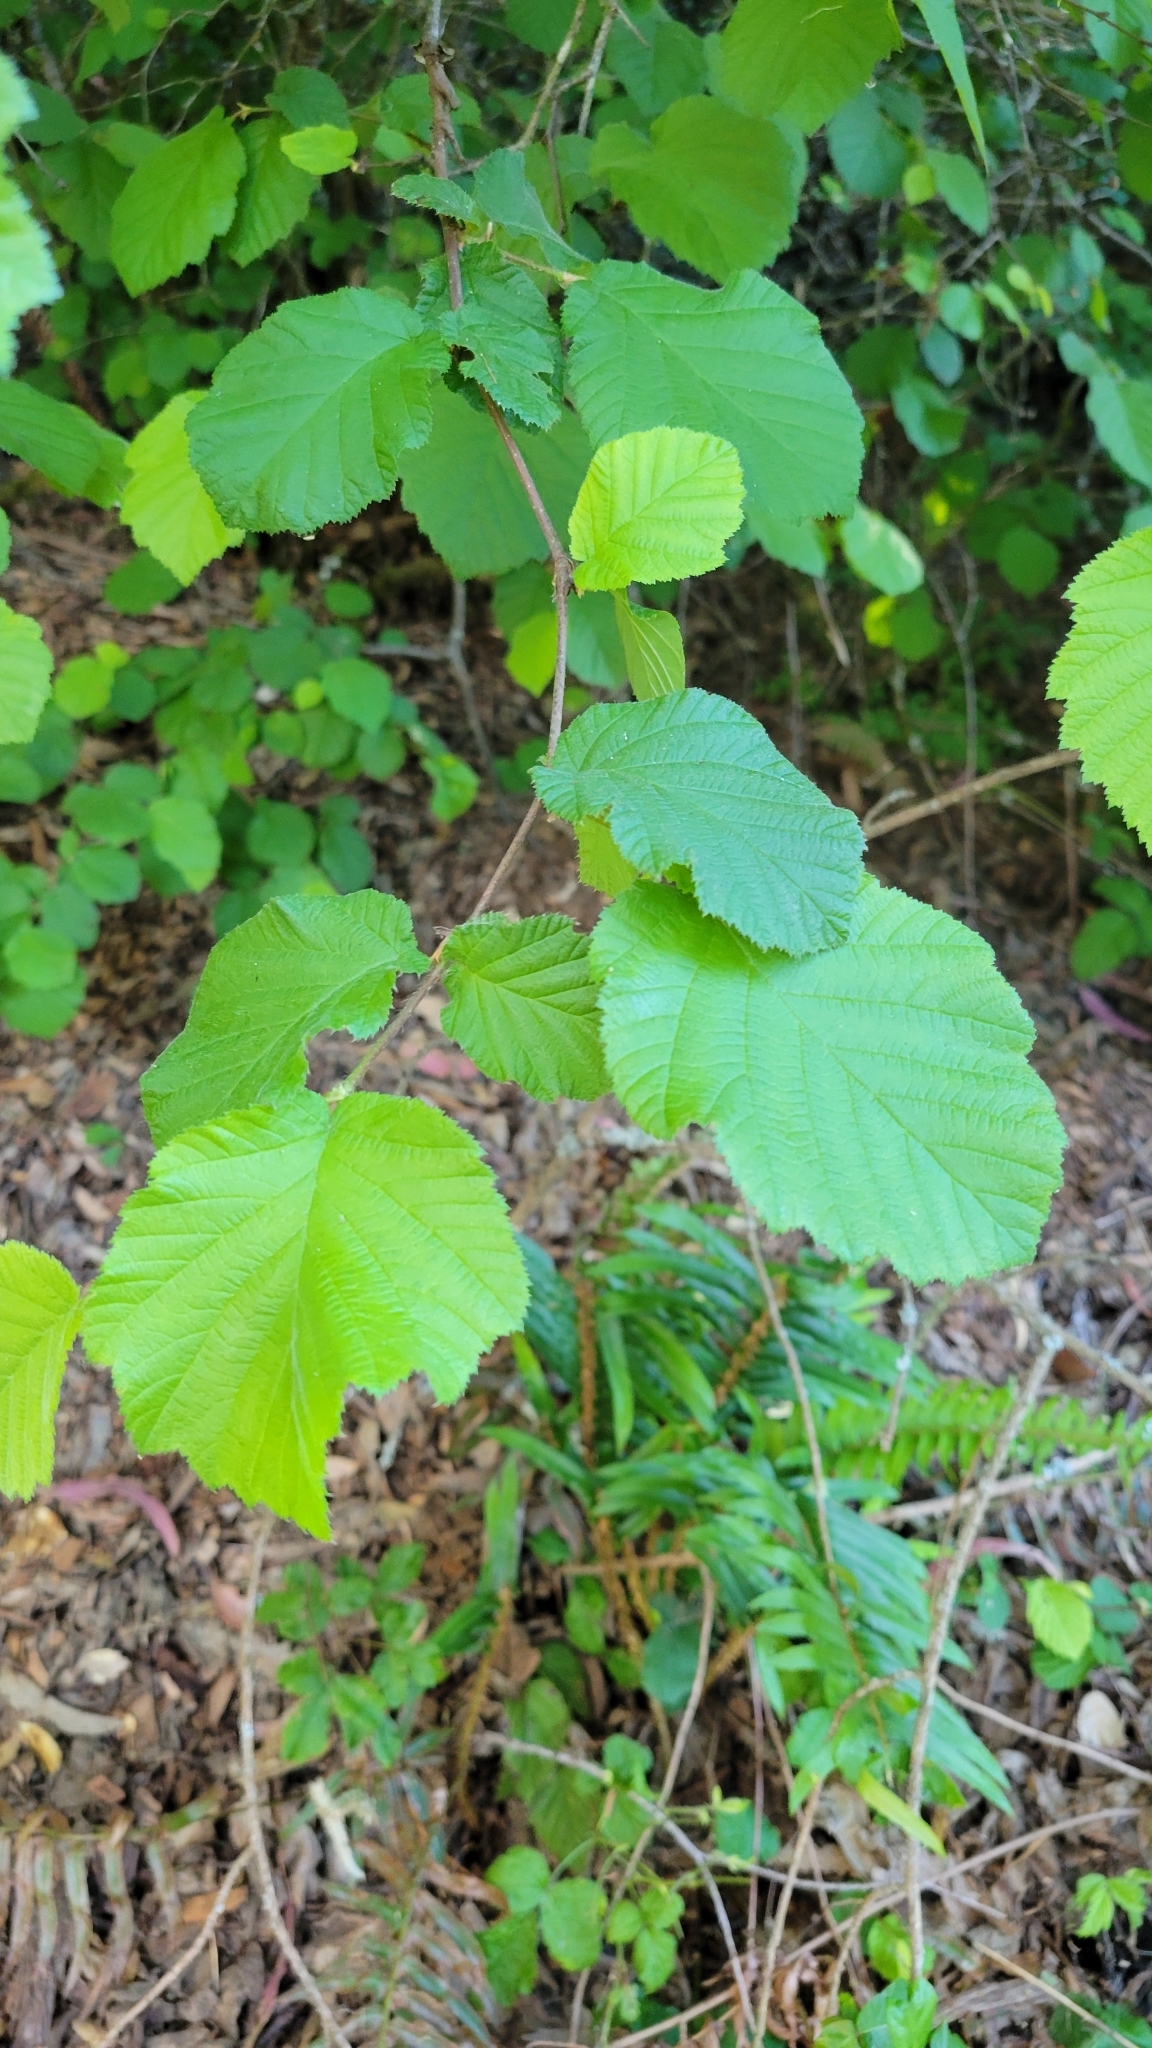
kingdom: Plantae
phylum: Tracheophyta
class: Magnoliopsida
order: Fagales
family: Betulaceae
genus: Corylus
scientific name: Corylus cornuta
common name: Beaked hazel
